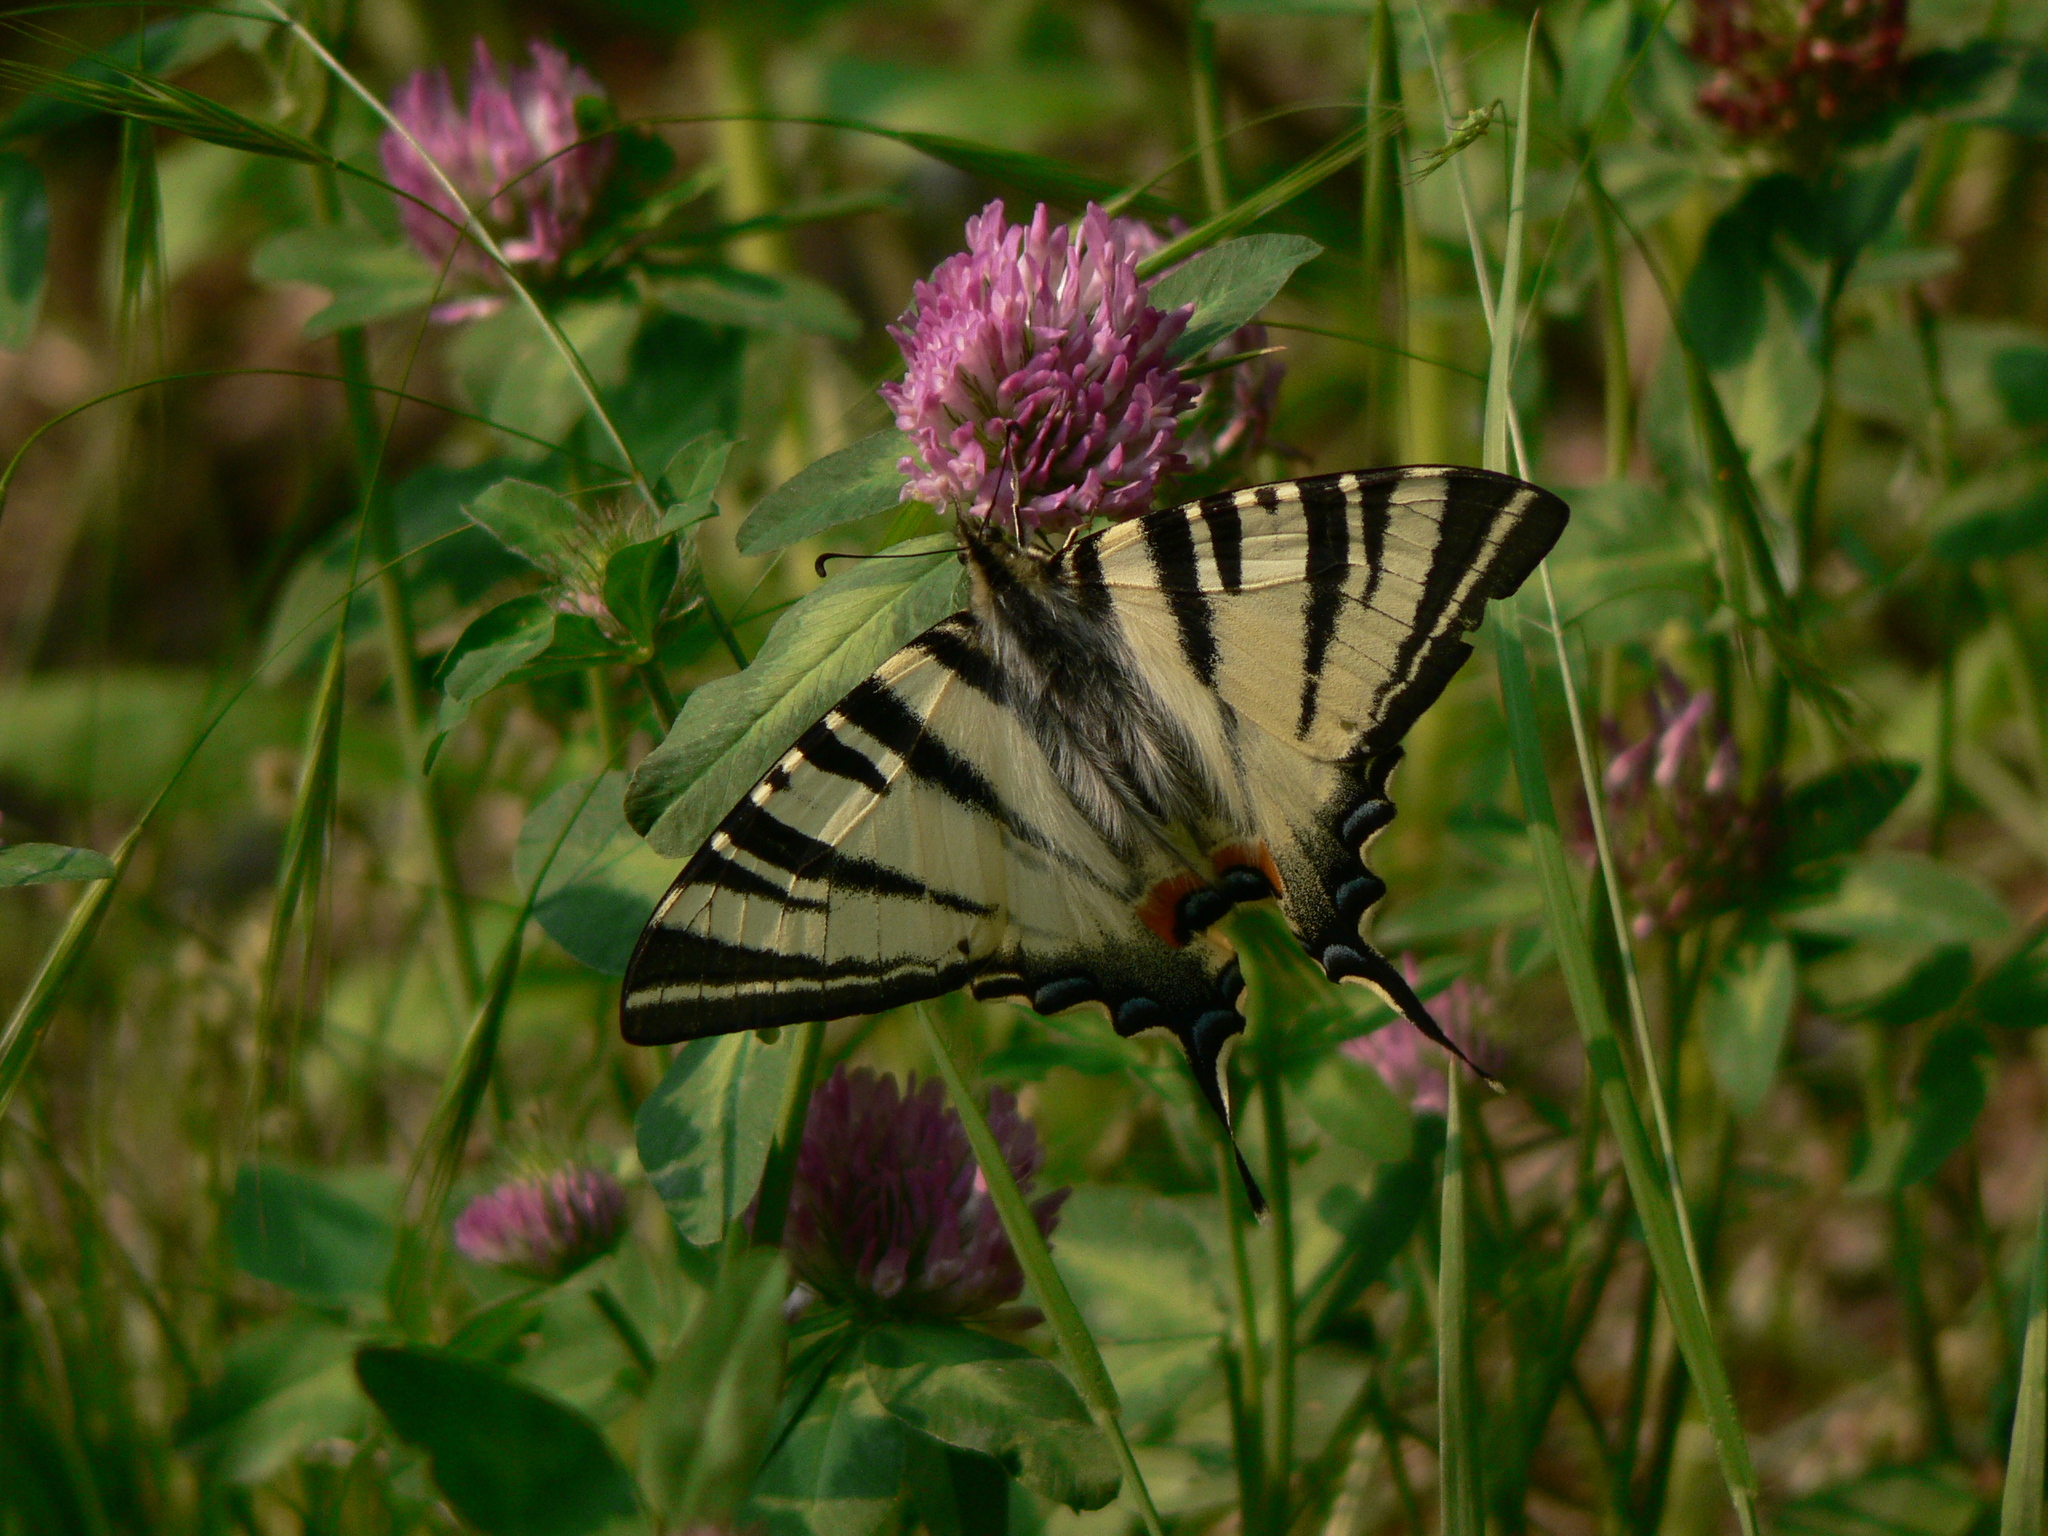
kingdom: Animalia
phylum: Arthropoda
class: Insecta
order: Lepidoptera
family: Papilionidae
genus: Iphiclides
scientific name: Iphiclides podalirius
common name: Scarce swallowtail
